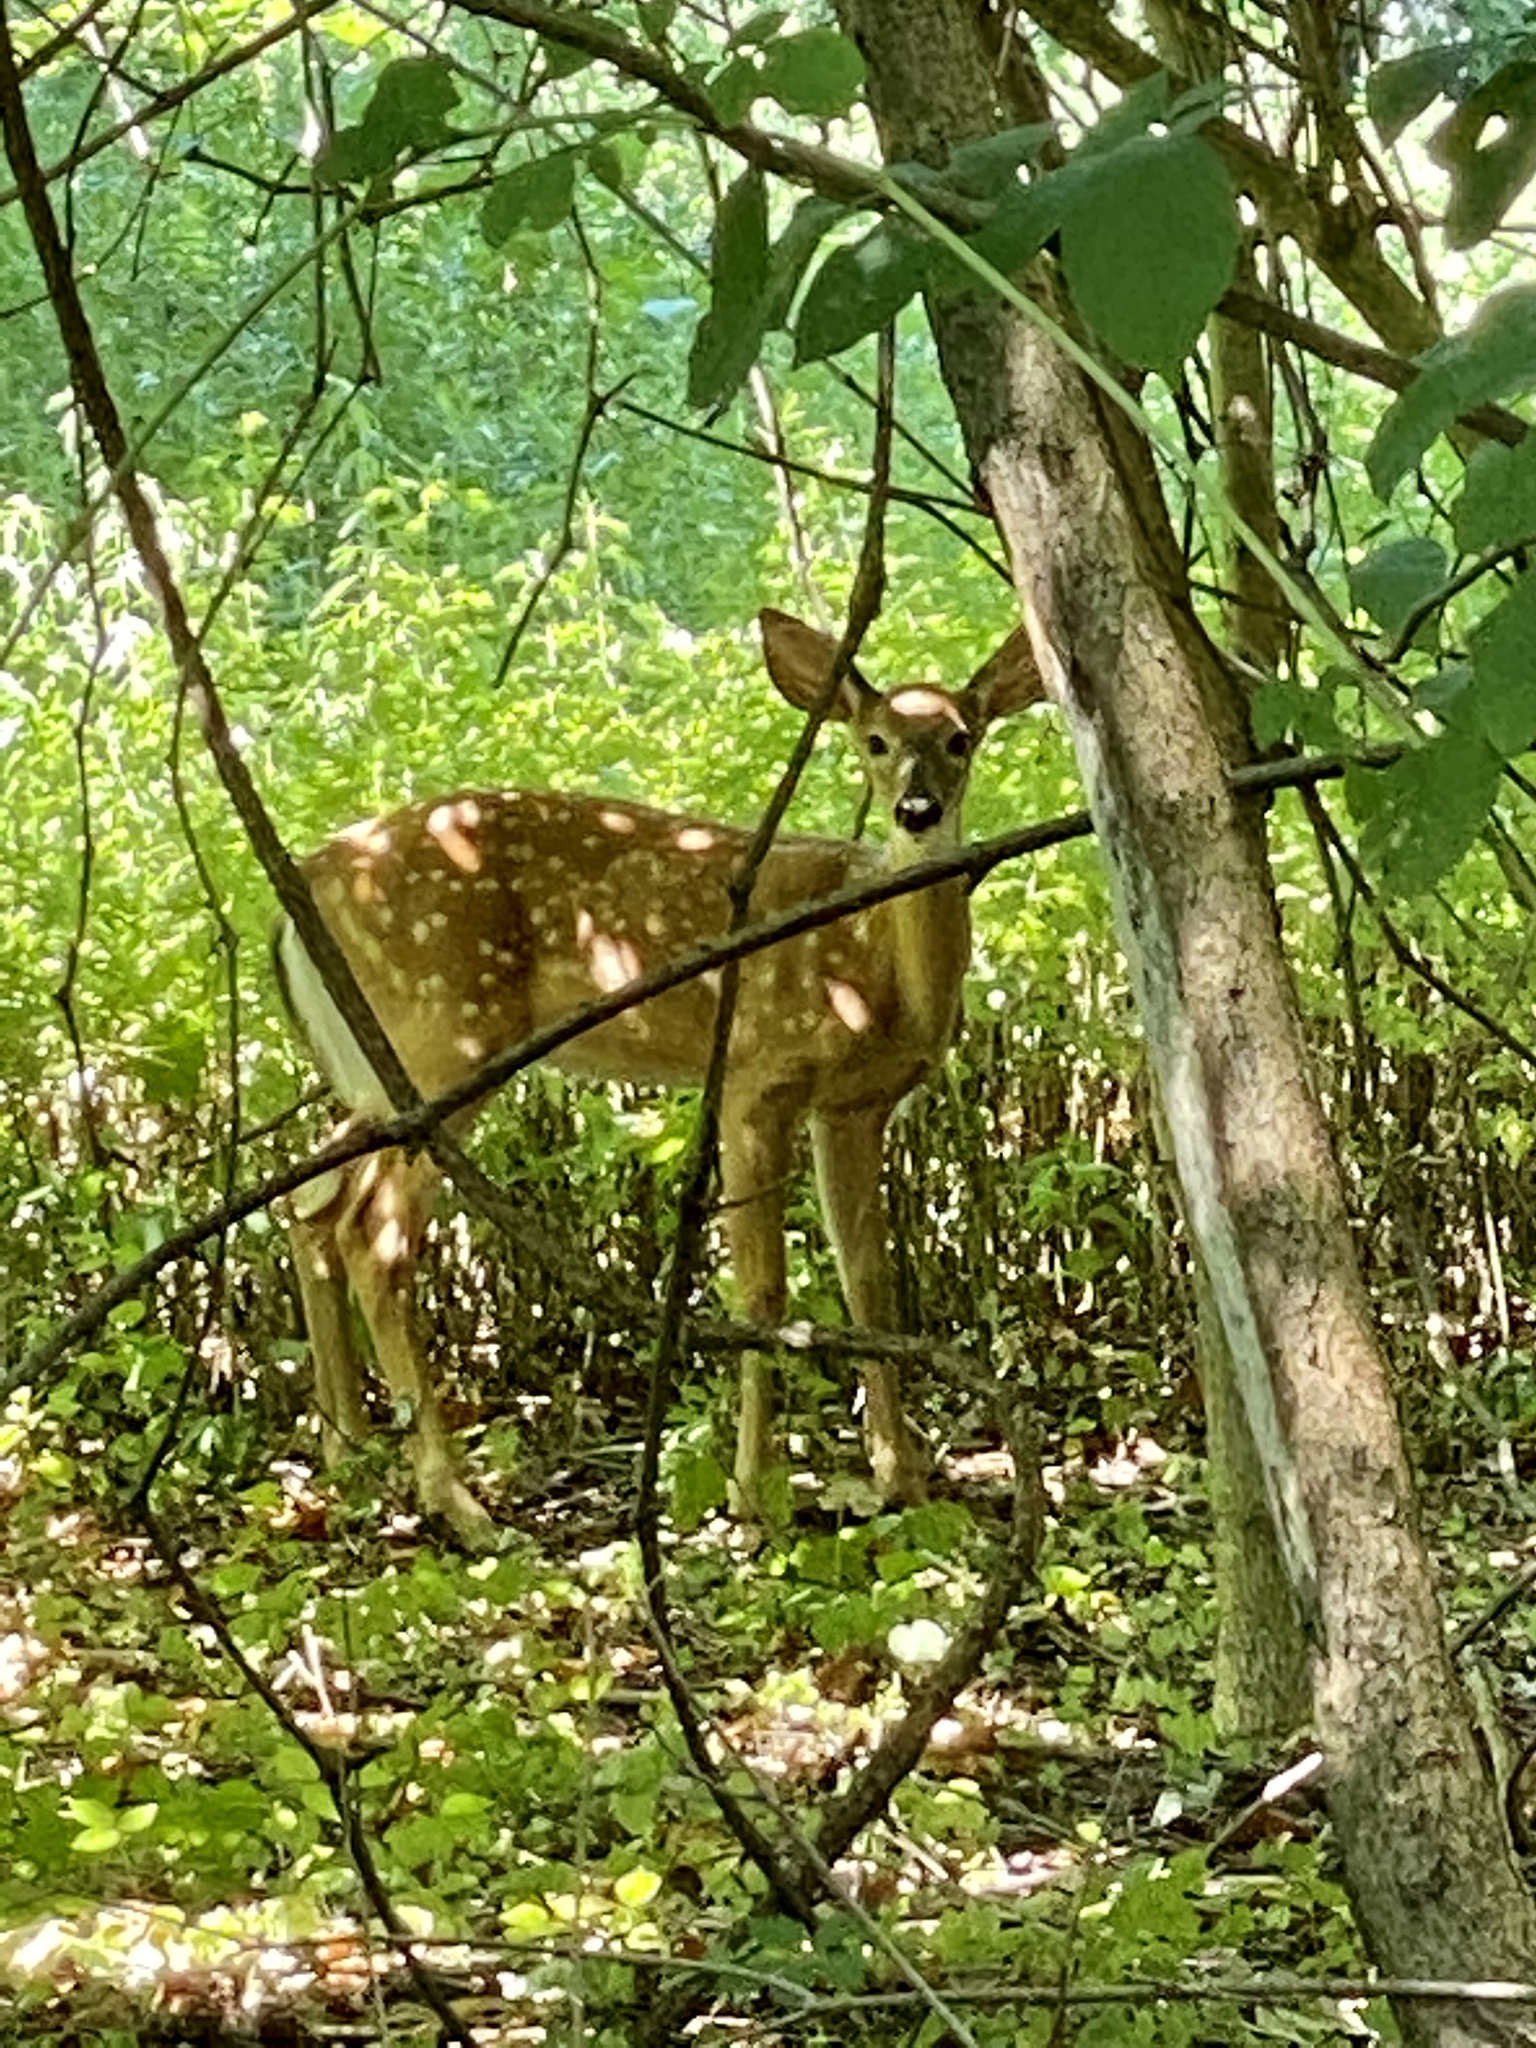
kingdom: Animalia
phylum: Chordata
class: Mammalia
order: Artiodactyla
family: Cervidae
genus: Odocoileus
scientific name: Odocoileus virginianus
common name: White-tailed deer
